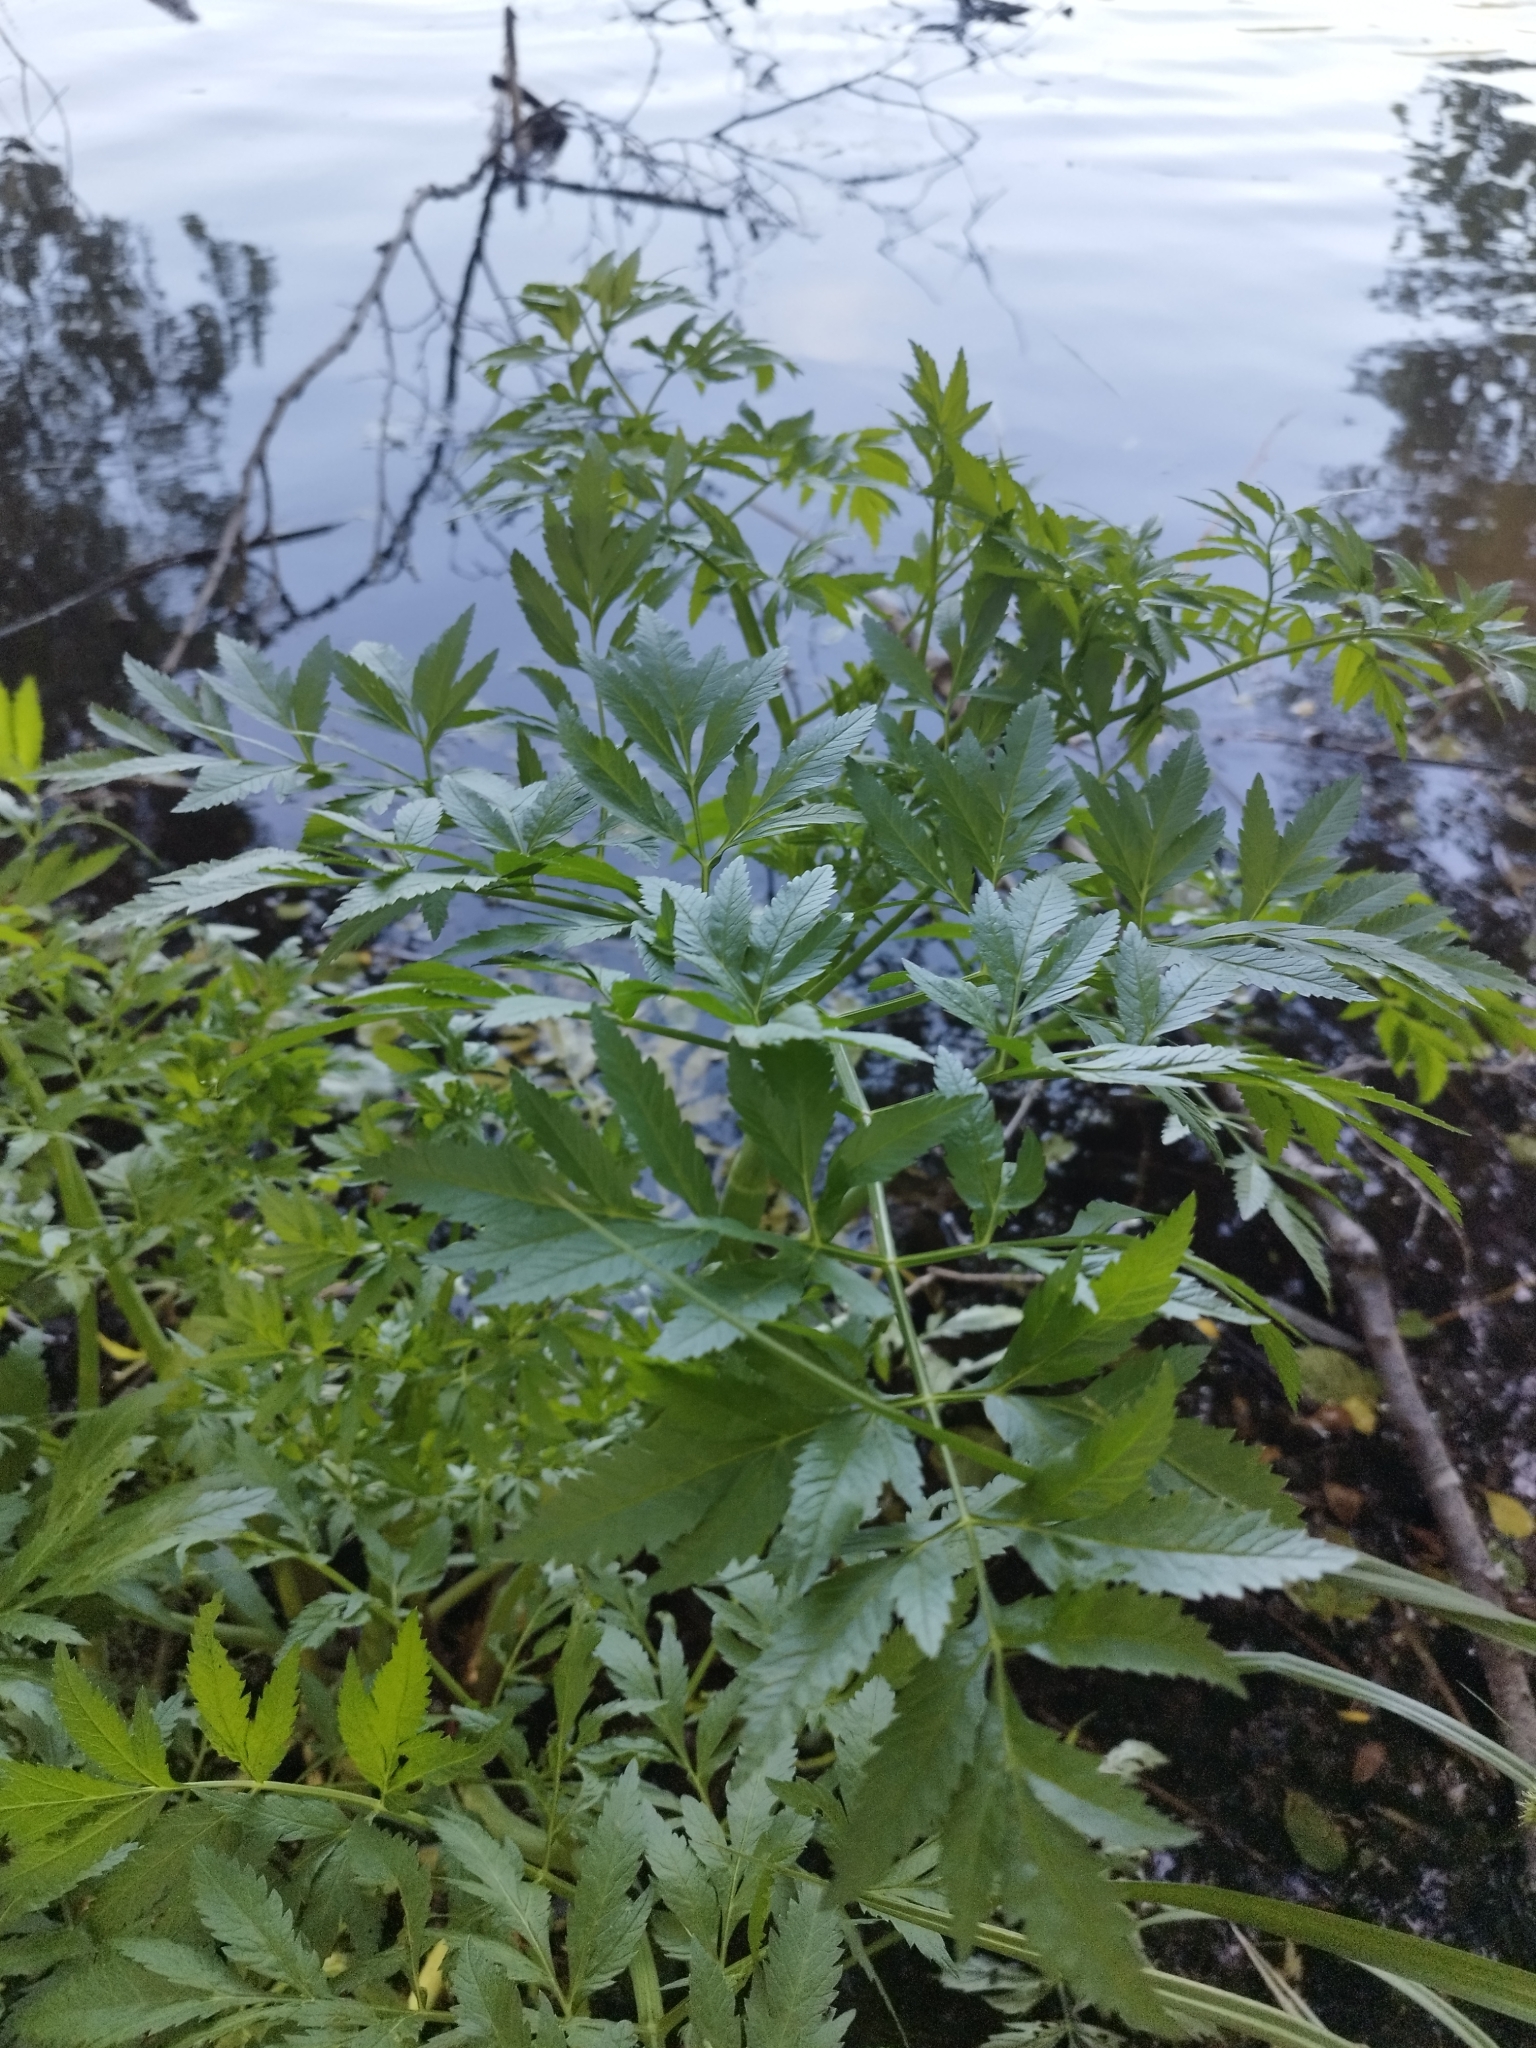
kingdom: Plantae
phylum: Tracheophyta
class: Magnoliopsida
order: Apiales
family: Apiaceae
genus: Cicuta
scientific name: Cicuta virosa
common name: Cowbane
